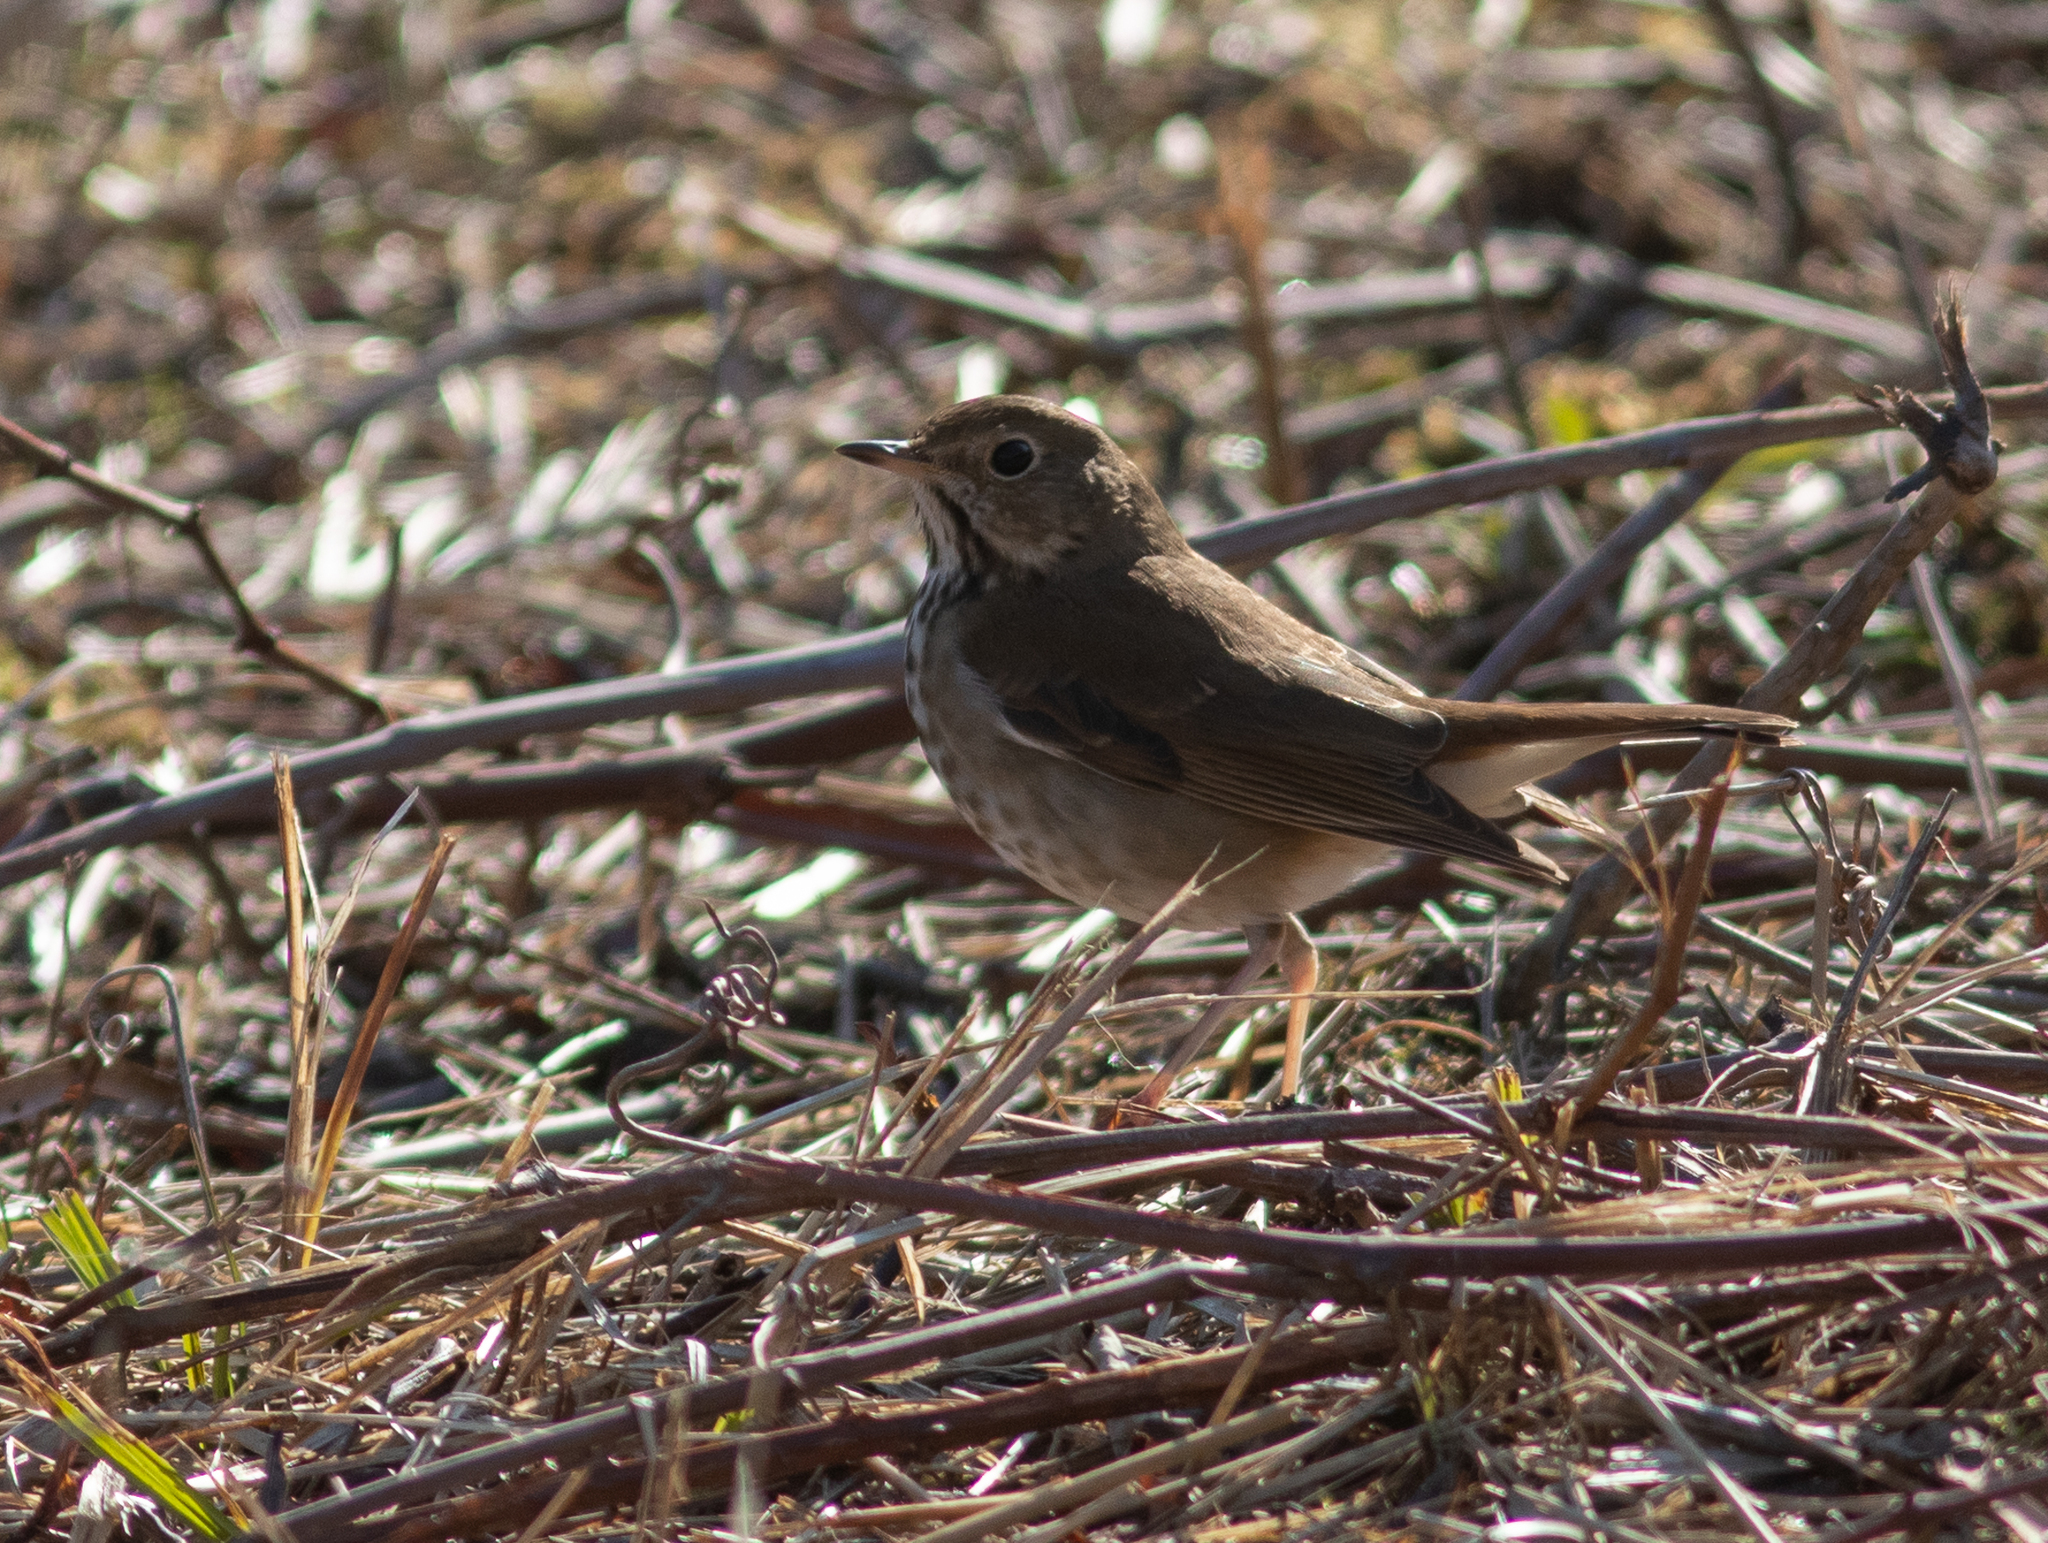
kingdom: Animalia
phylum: Chordata
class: Aves
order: Passeriformes
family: Turdidae
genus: Catharus
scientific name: Catharus guttatus
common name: Hermit thrush
